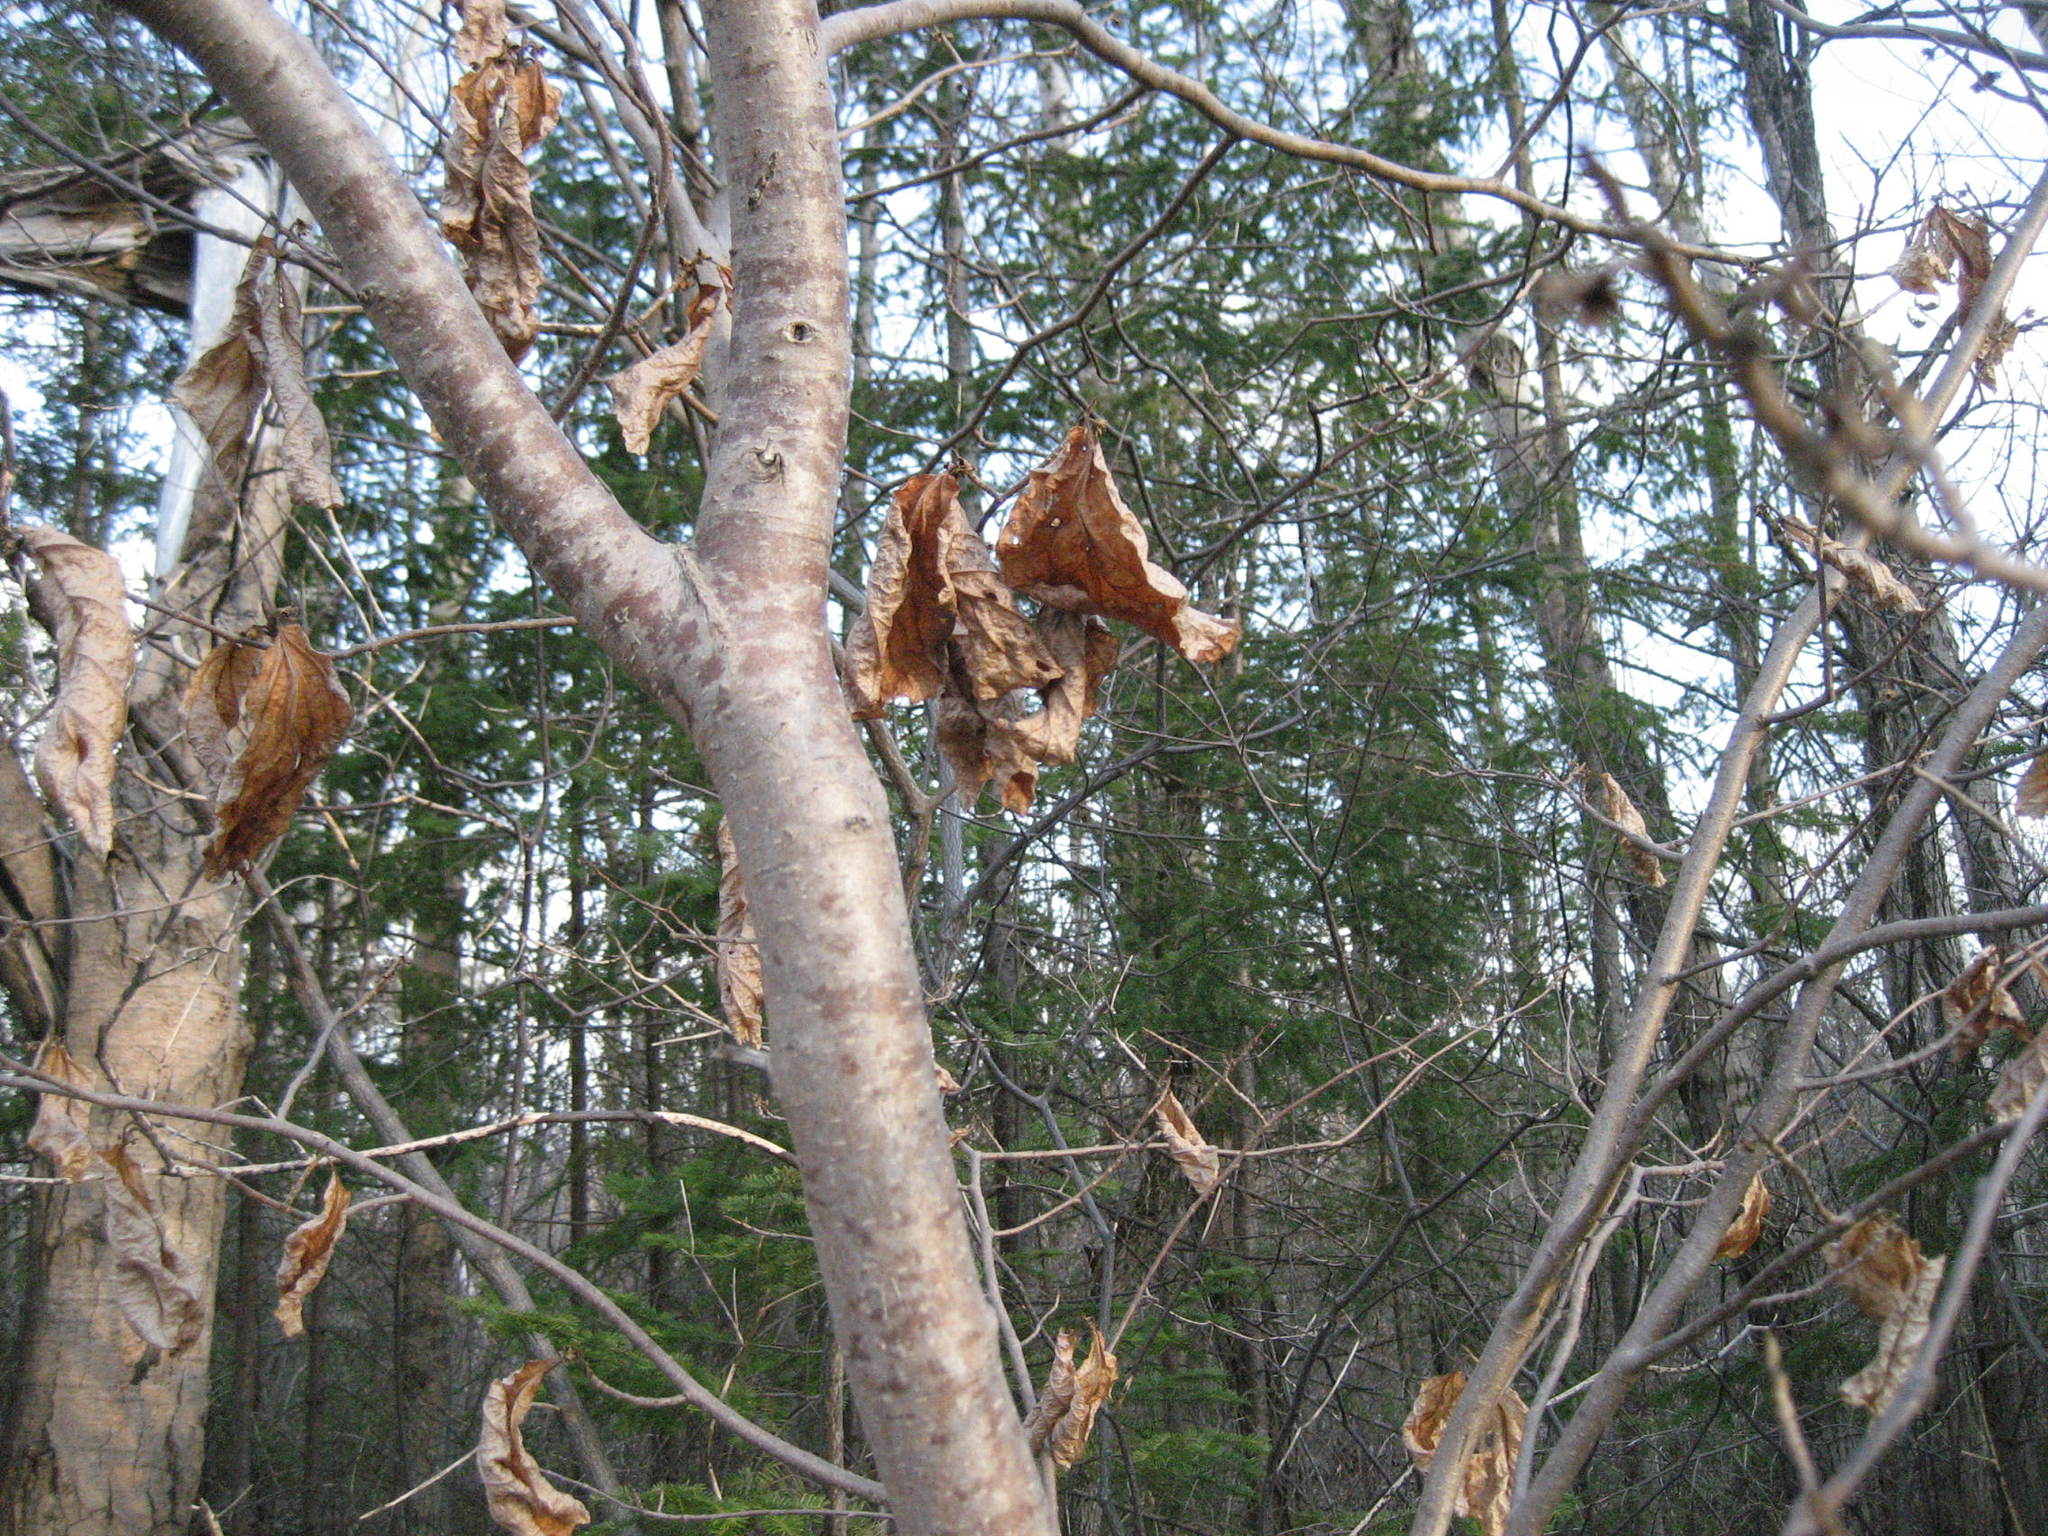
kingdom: Plantae
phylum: Tracheophyta
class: Magnoliopsida
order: Saxifragales
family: Hamamelidaceae
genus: Hamamelis
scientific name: Hamamelis virginiana
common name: Witch-hazel
